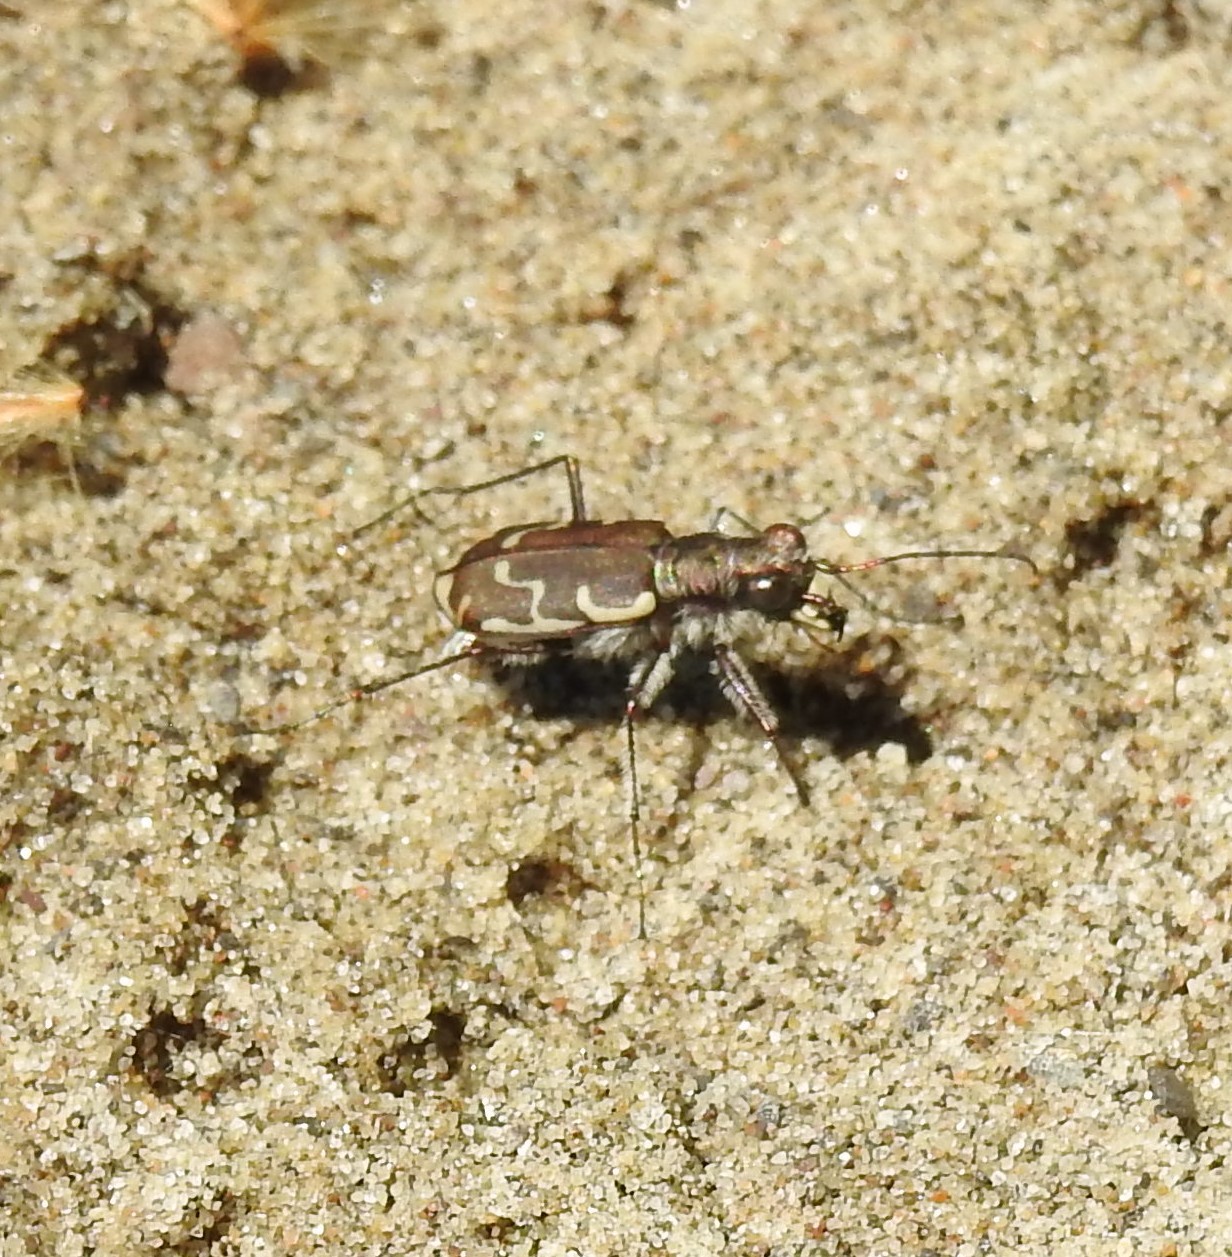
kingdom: Animalia
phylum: Arthropoda
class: Insecta
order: Coleoptera
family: Carabidae
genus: Cicindela
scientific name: Cicindela repanda
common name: Bronzed tiger beetle
